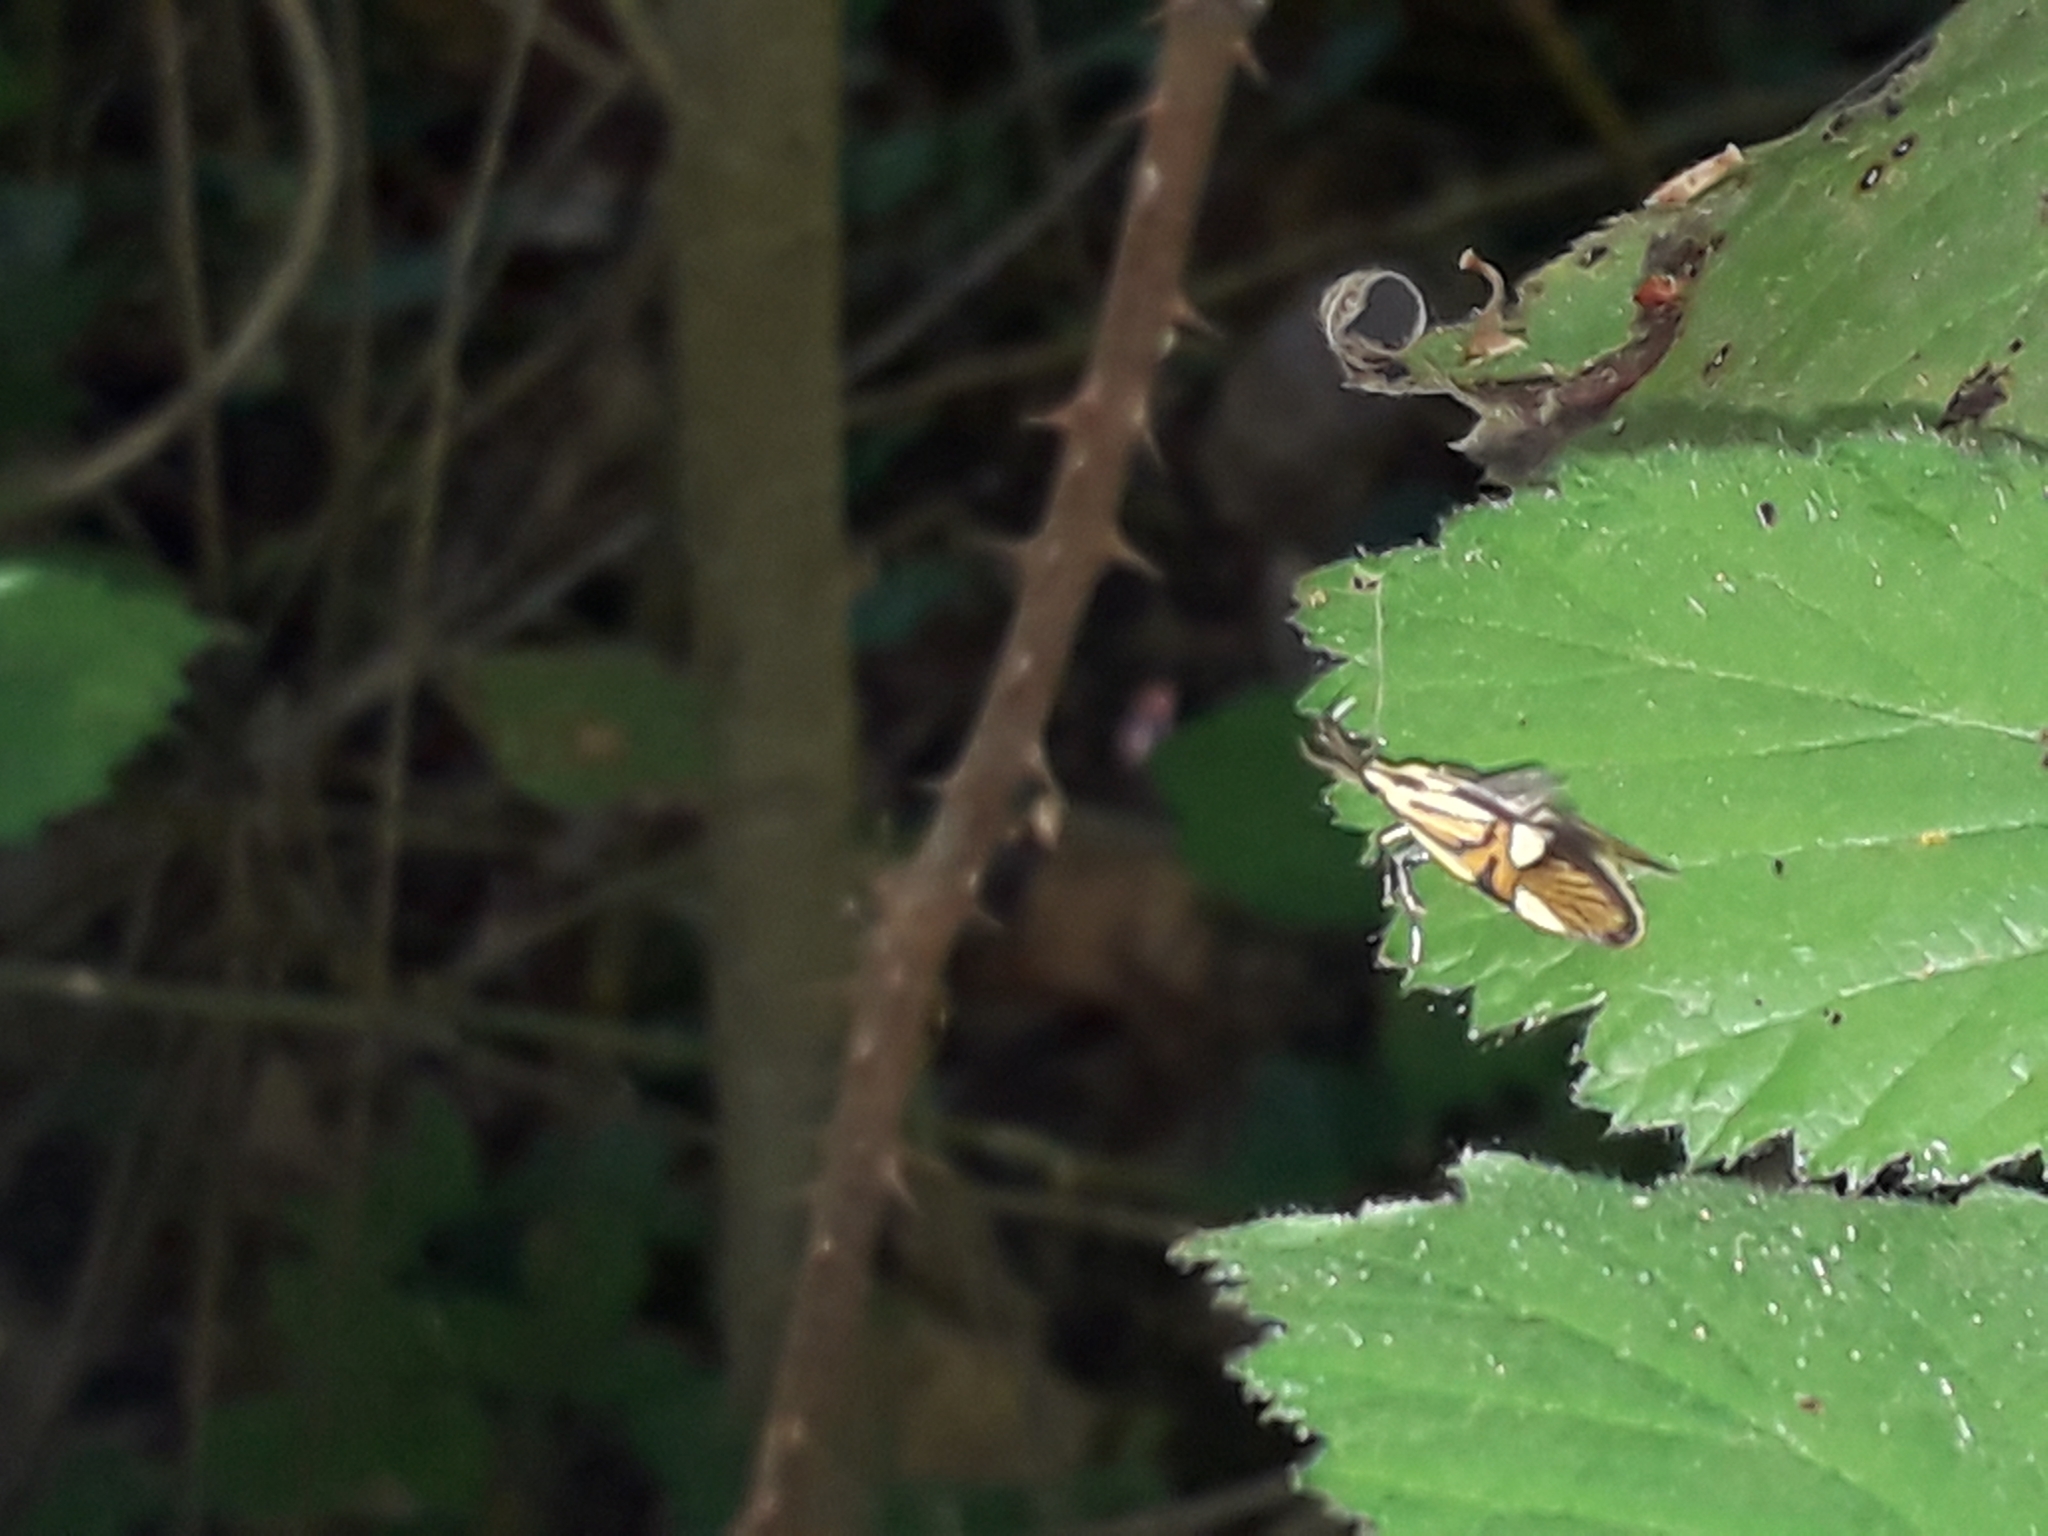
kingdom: Animalia
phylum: Arthropoda
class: Insecta
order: Lepidoptera
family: Oecophoridae
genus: Oecophora
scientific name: Oecophora Alabonia geoffrella
